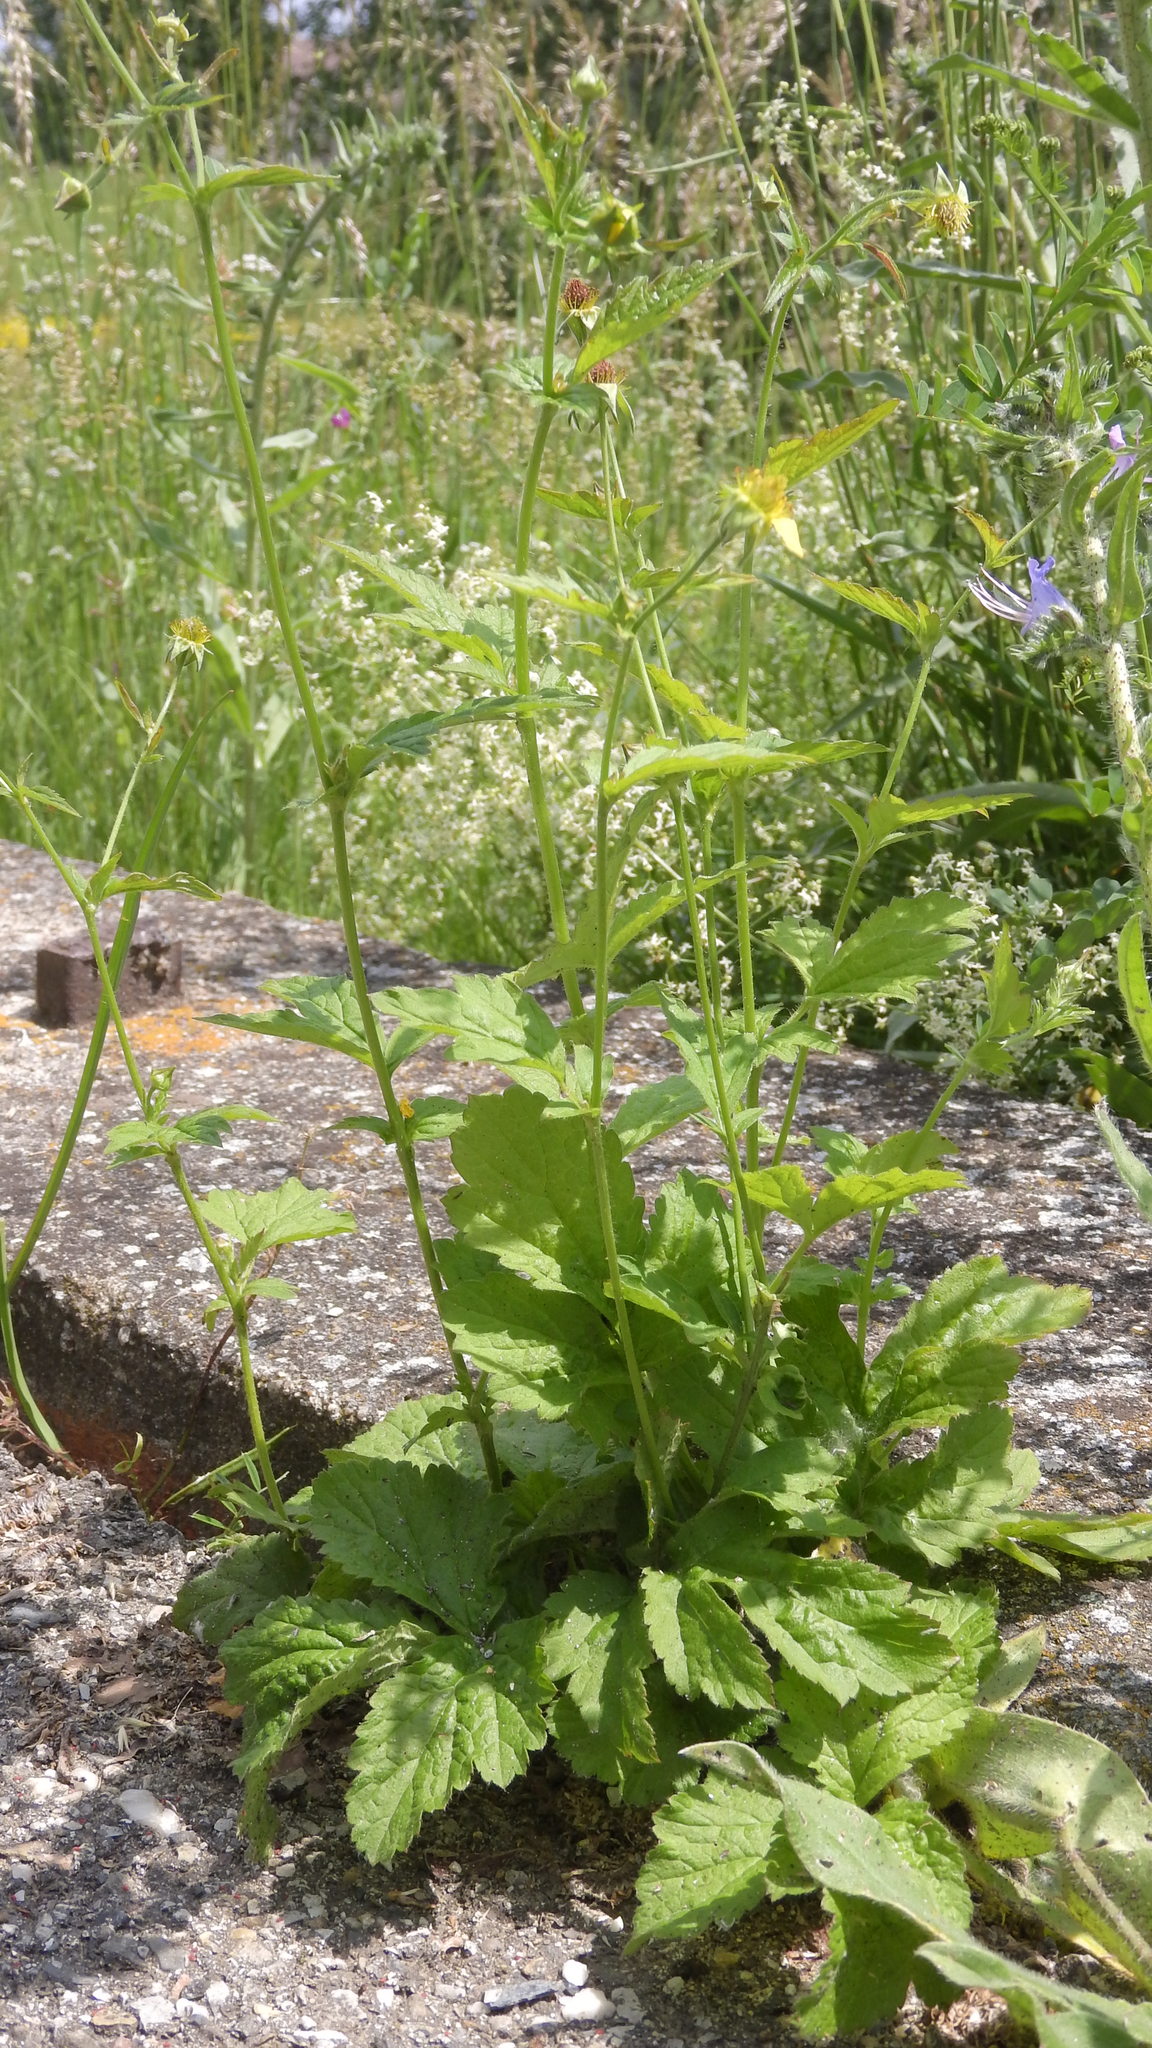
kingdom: Plantae
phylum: Tracheophyta
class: Magnoliopsida
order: Rosales
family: Rosaceae
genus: Geum
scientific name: Geum urbanum
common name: Wood avens
